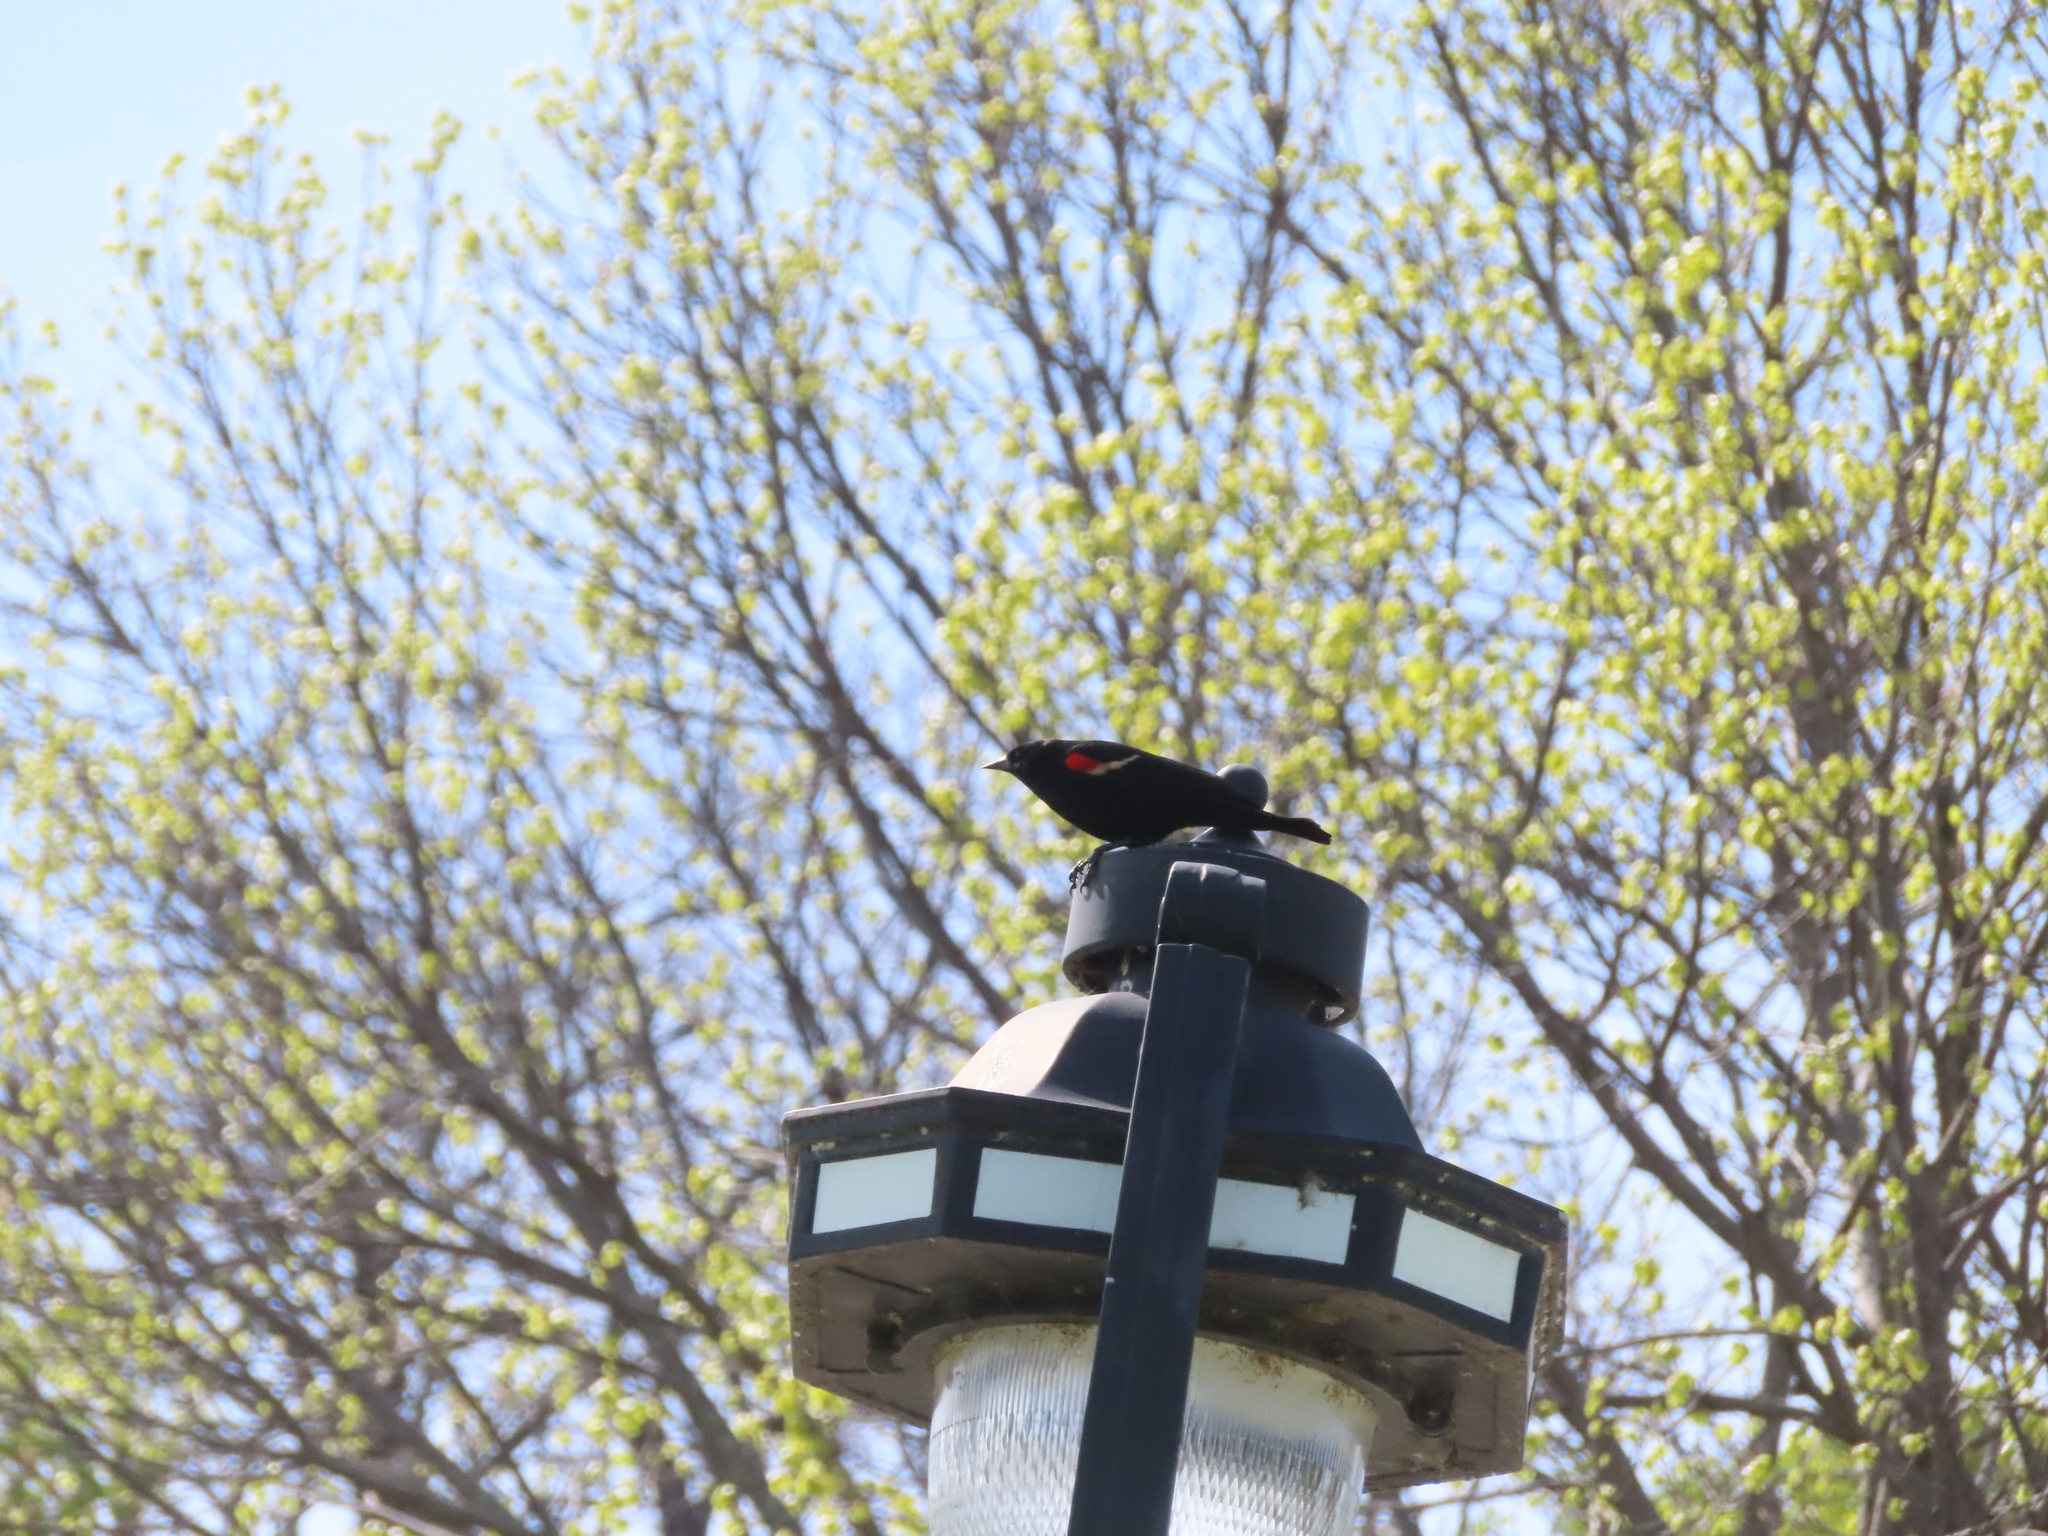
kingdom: Animalia
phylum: Chordata
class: Aves
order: Passeriformes
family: Icteridae
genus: Agelaius
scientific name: Agelaius phoeniceus
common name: Red-winged blackbird
